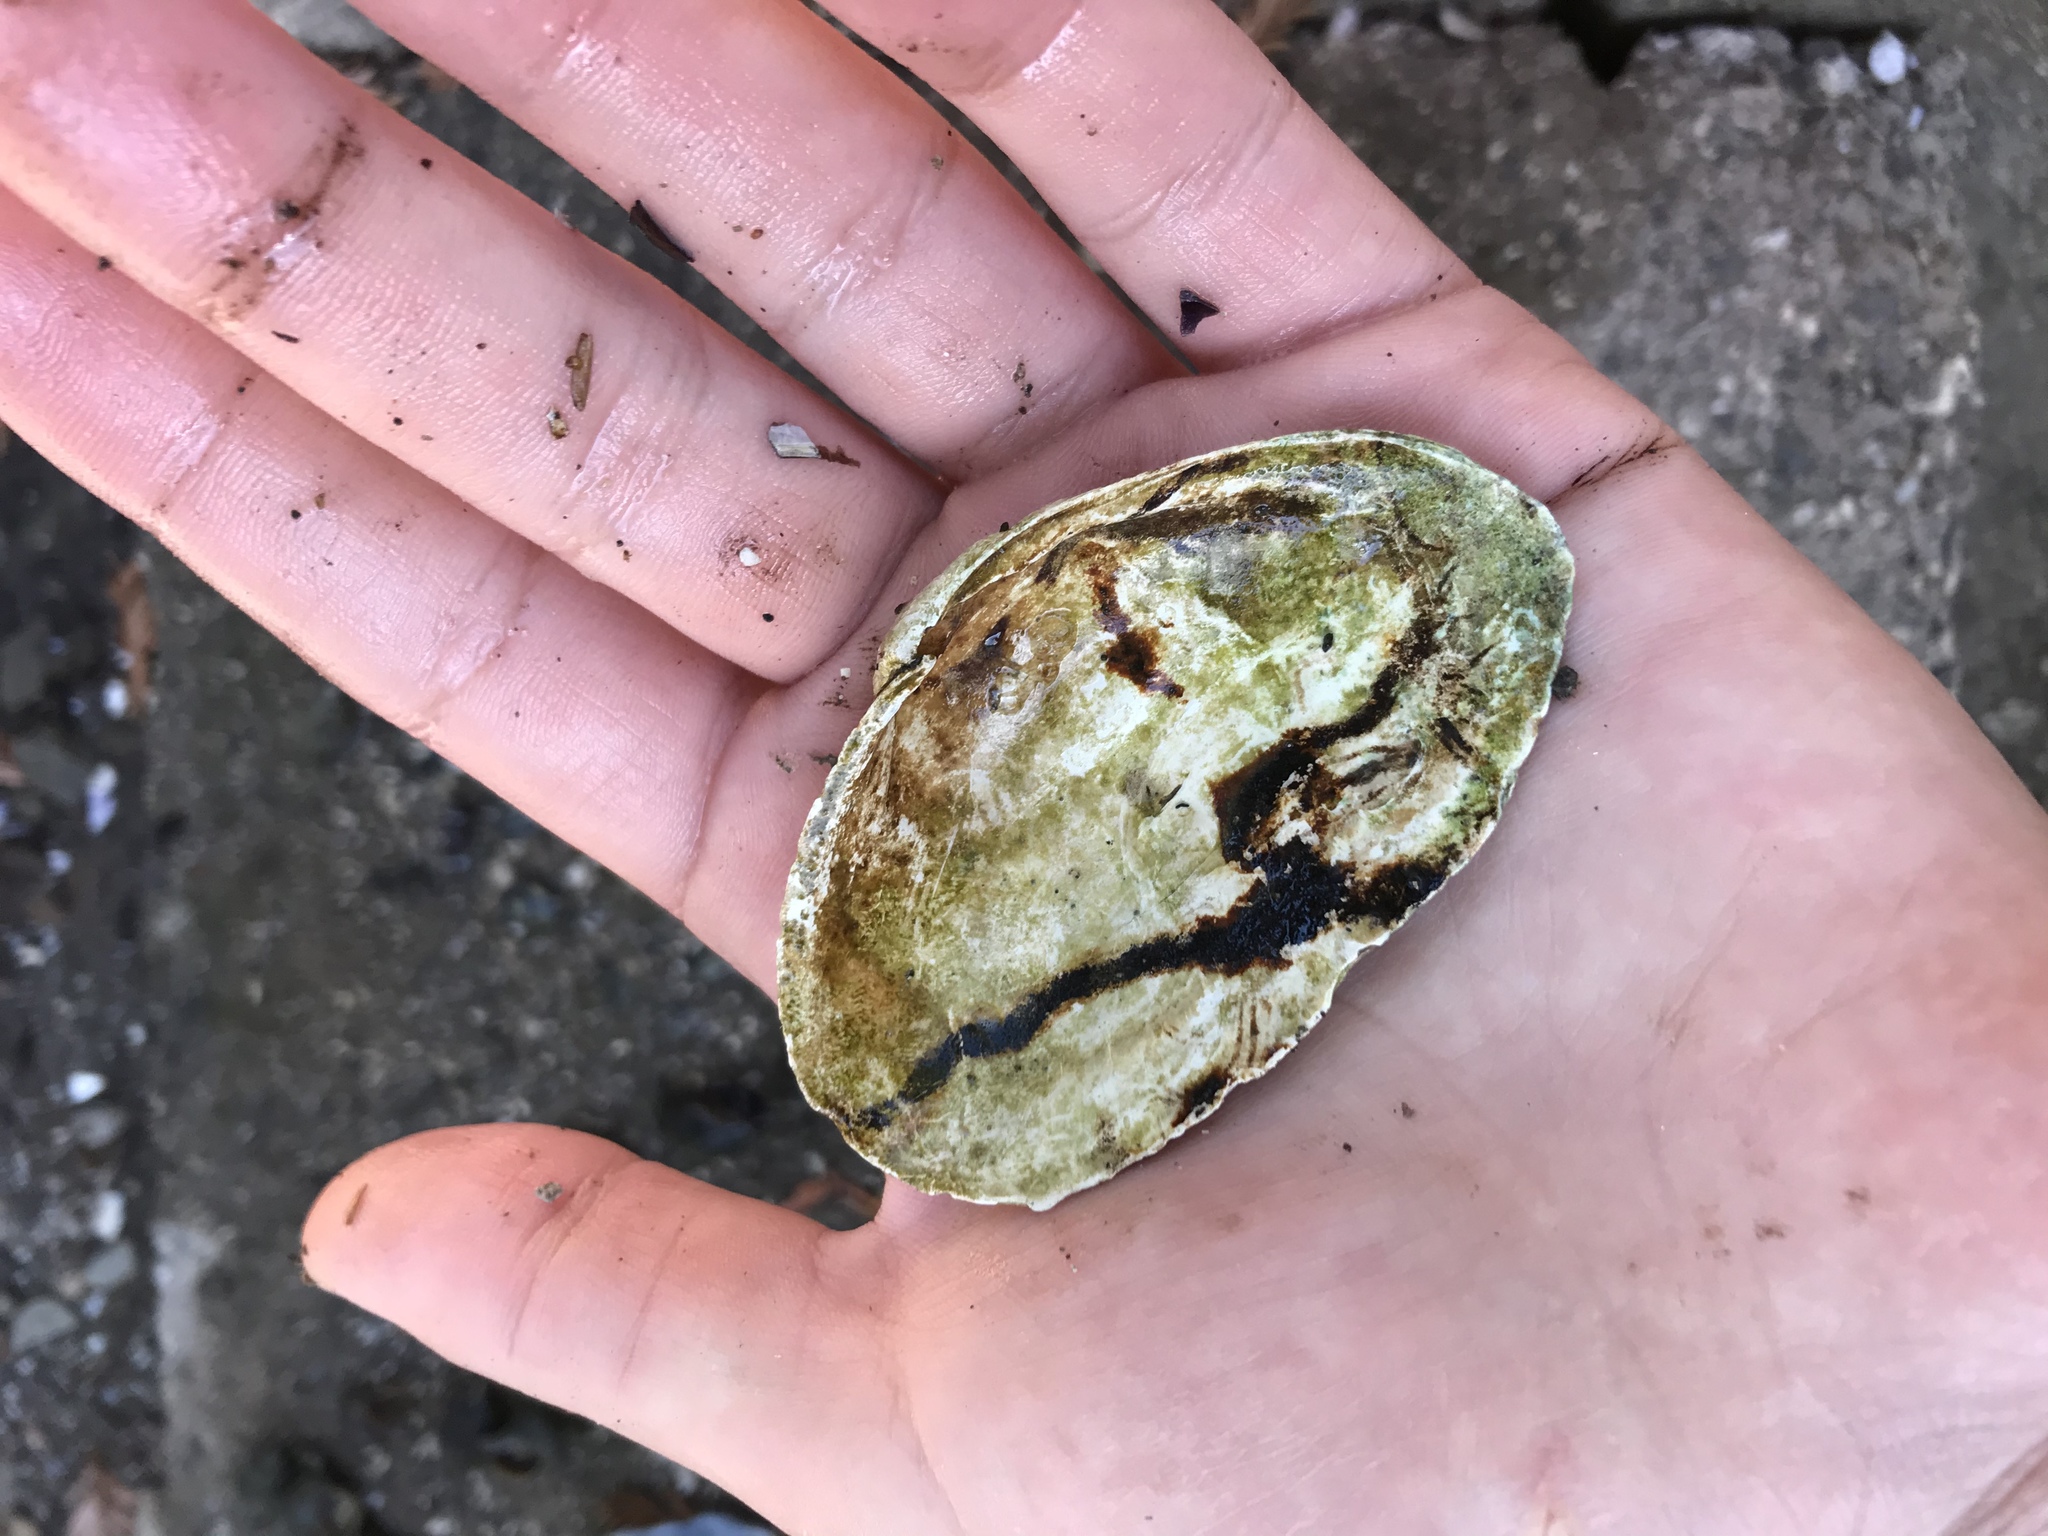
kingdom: Animalia
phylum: Mollusca
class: Bivalvia
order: Myida
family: Myidae
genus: Mya
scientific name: Mya arenaria
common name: Soft-shelled clam
